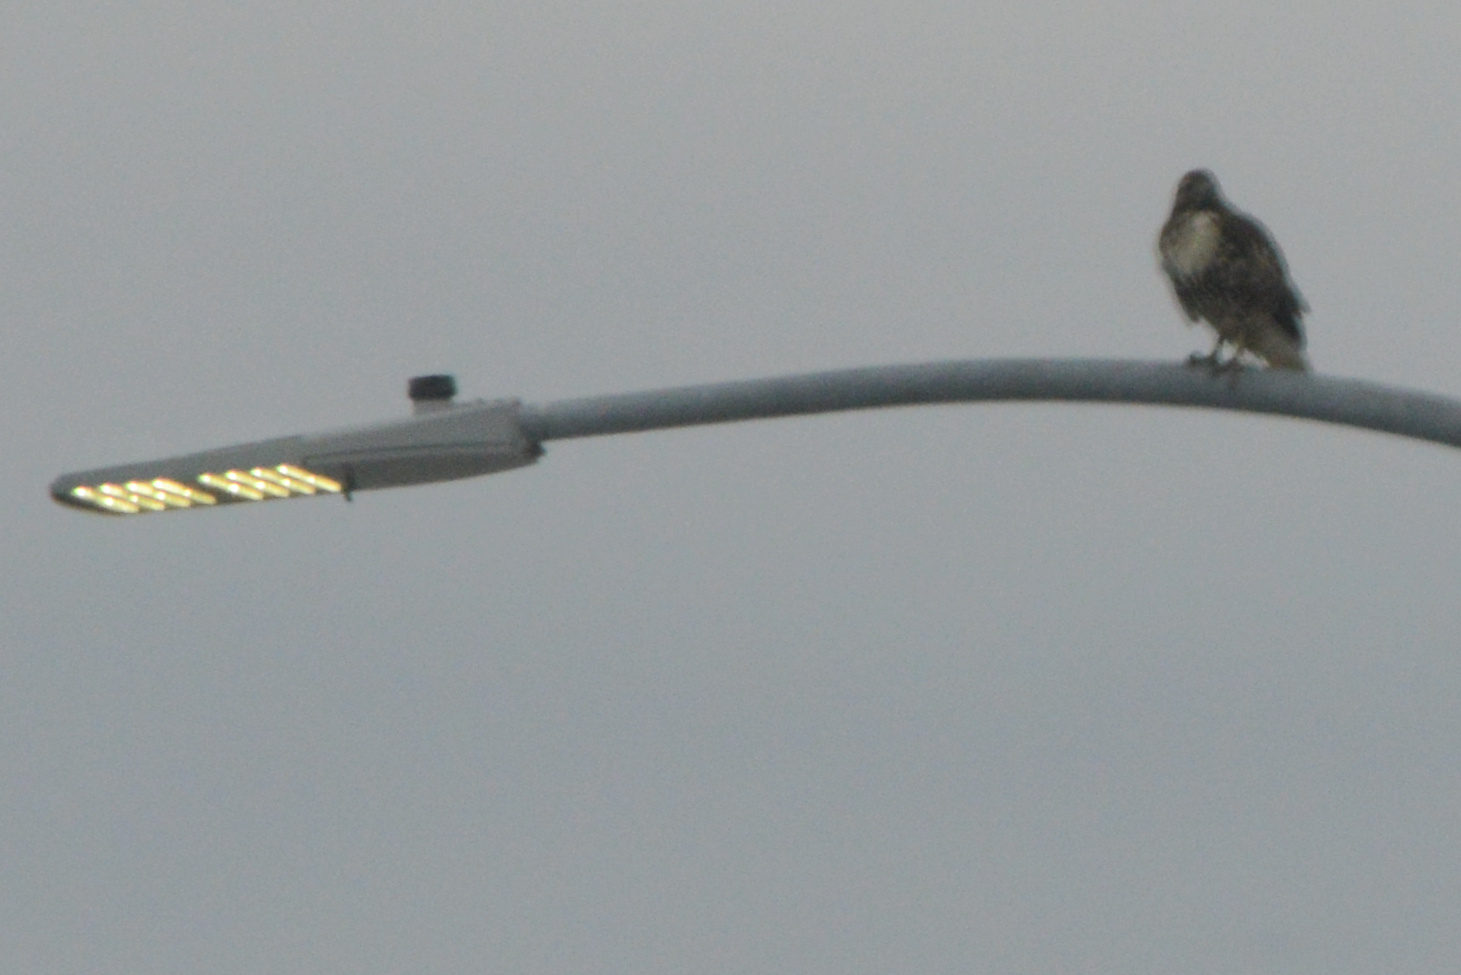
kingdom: Animalia
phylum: Chordata
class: Aves
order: Accipitriformes
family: Accipitridae
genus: Buteo
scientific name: Buteo jamaicensis
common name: Red-tailed hawk
